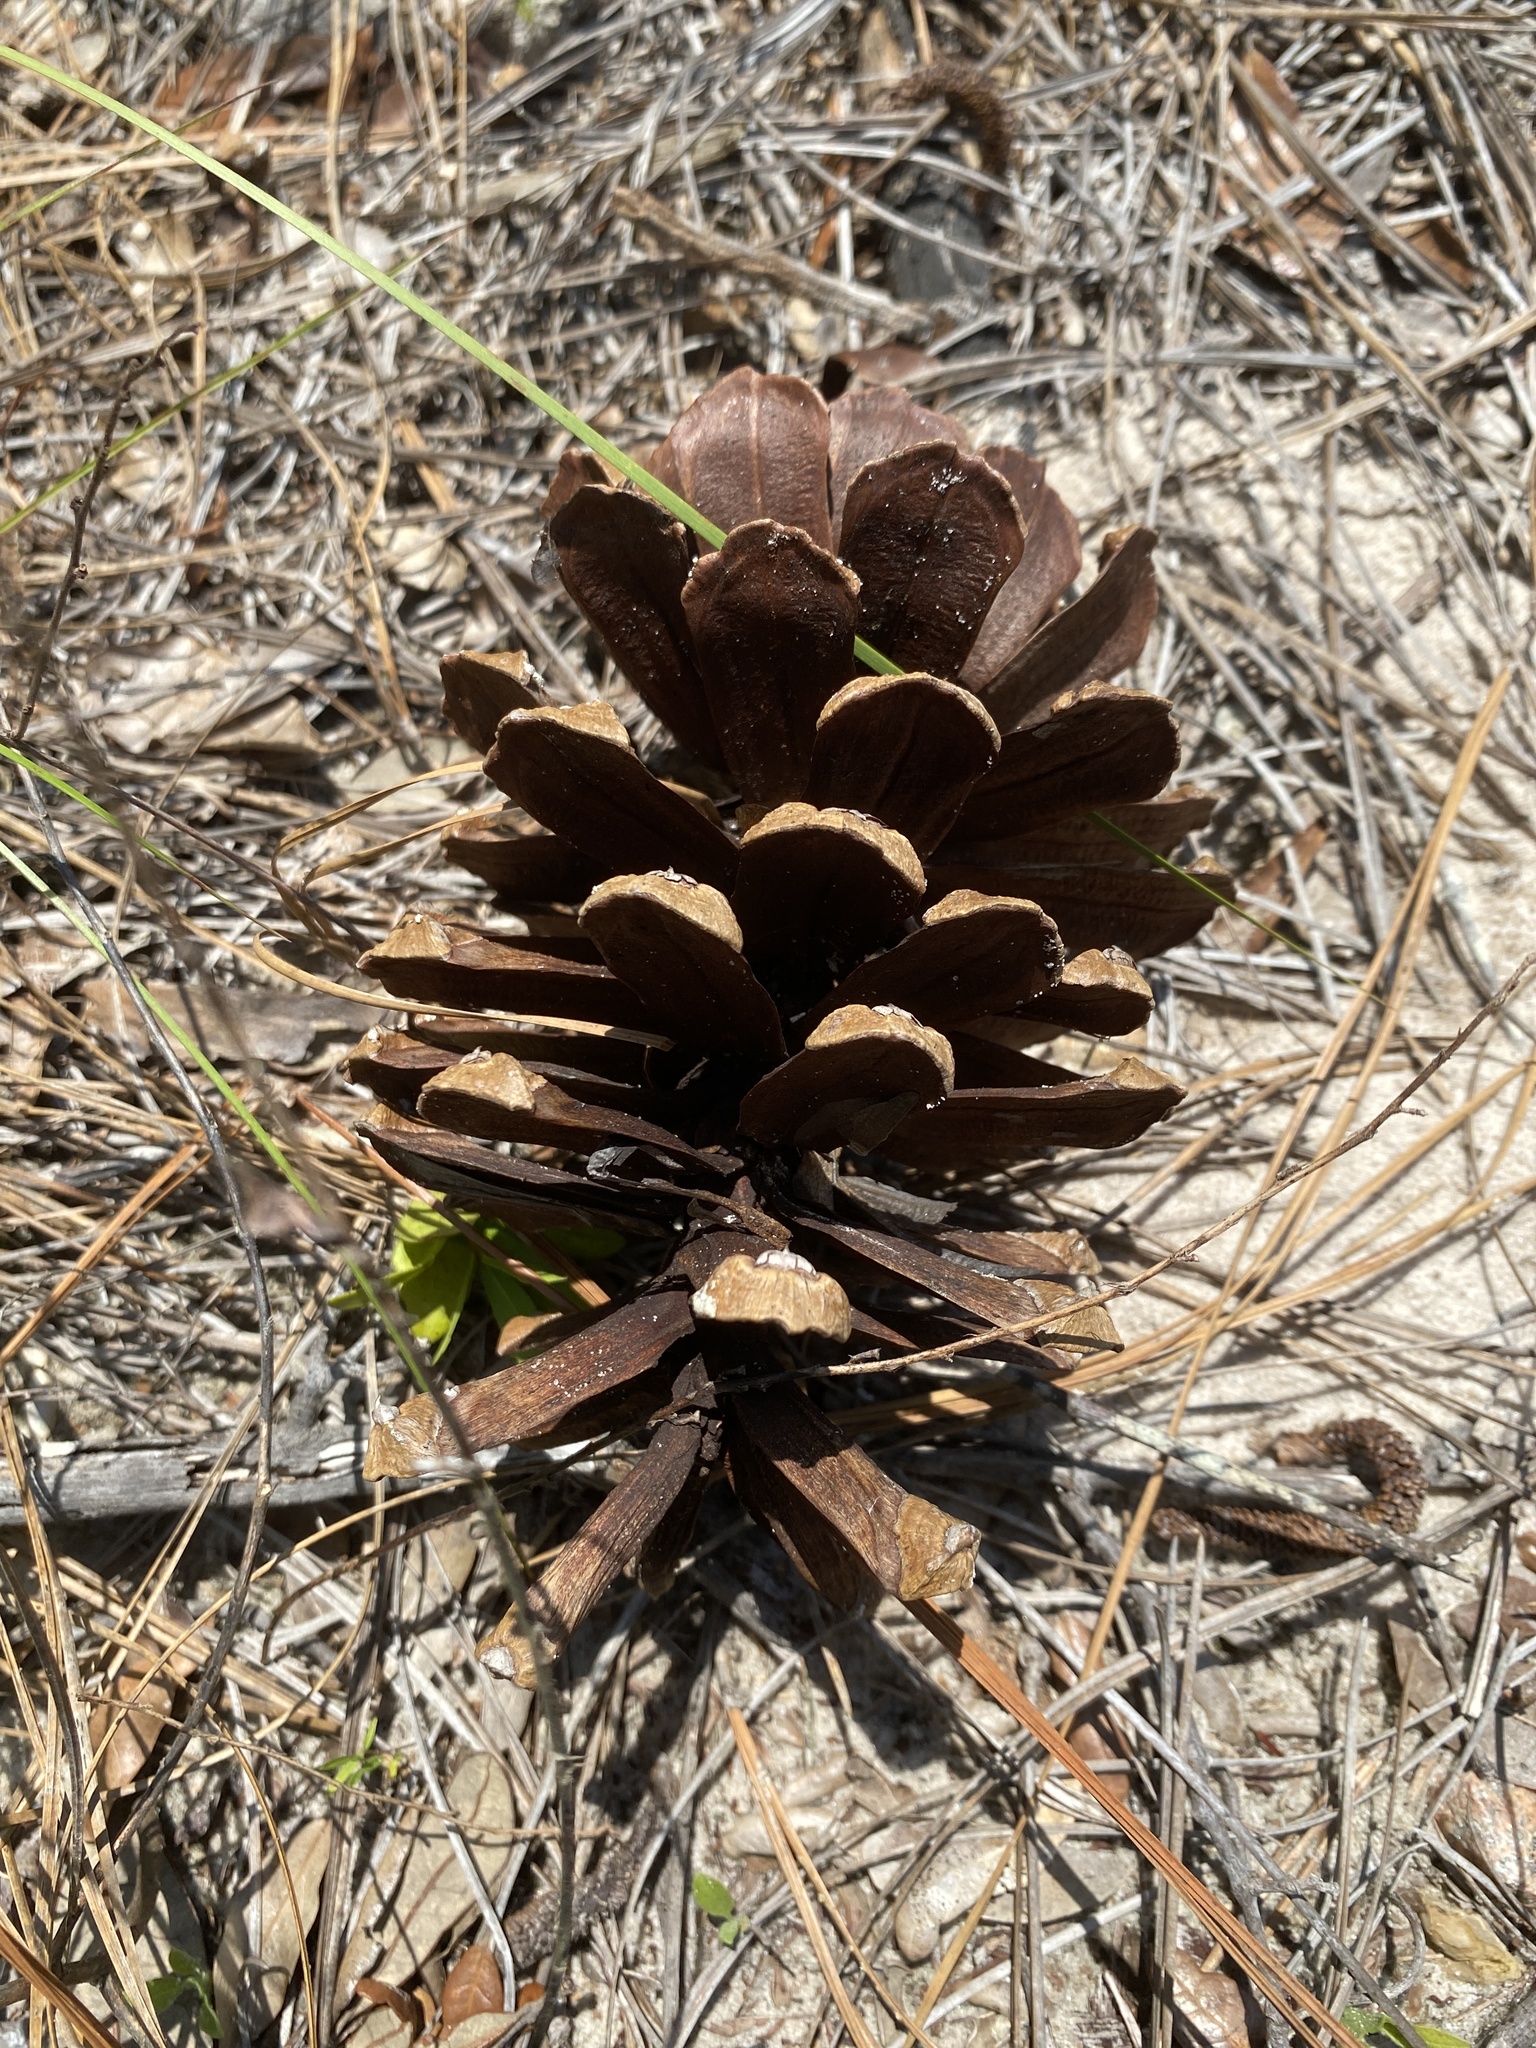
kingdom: Plantae
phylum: Tracheophyta
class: Pinopsida
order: Pinales
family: Pinaceae
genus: Pinus
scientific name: Pinus palustris
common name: Longleaf pine
